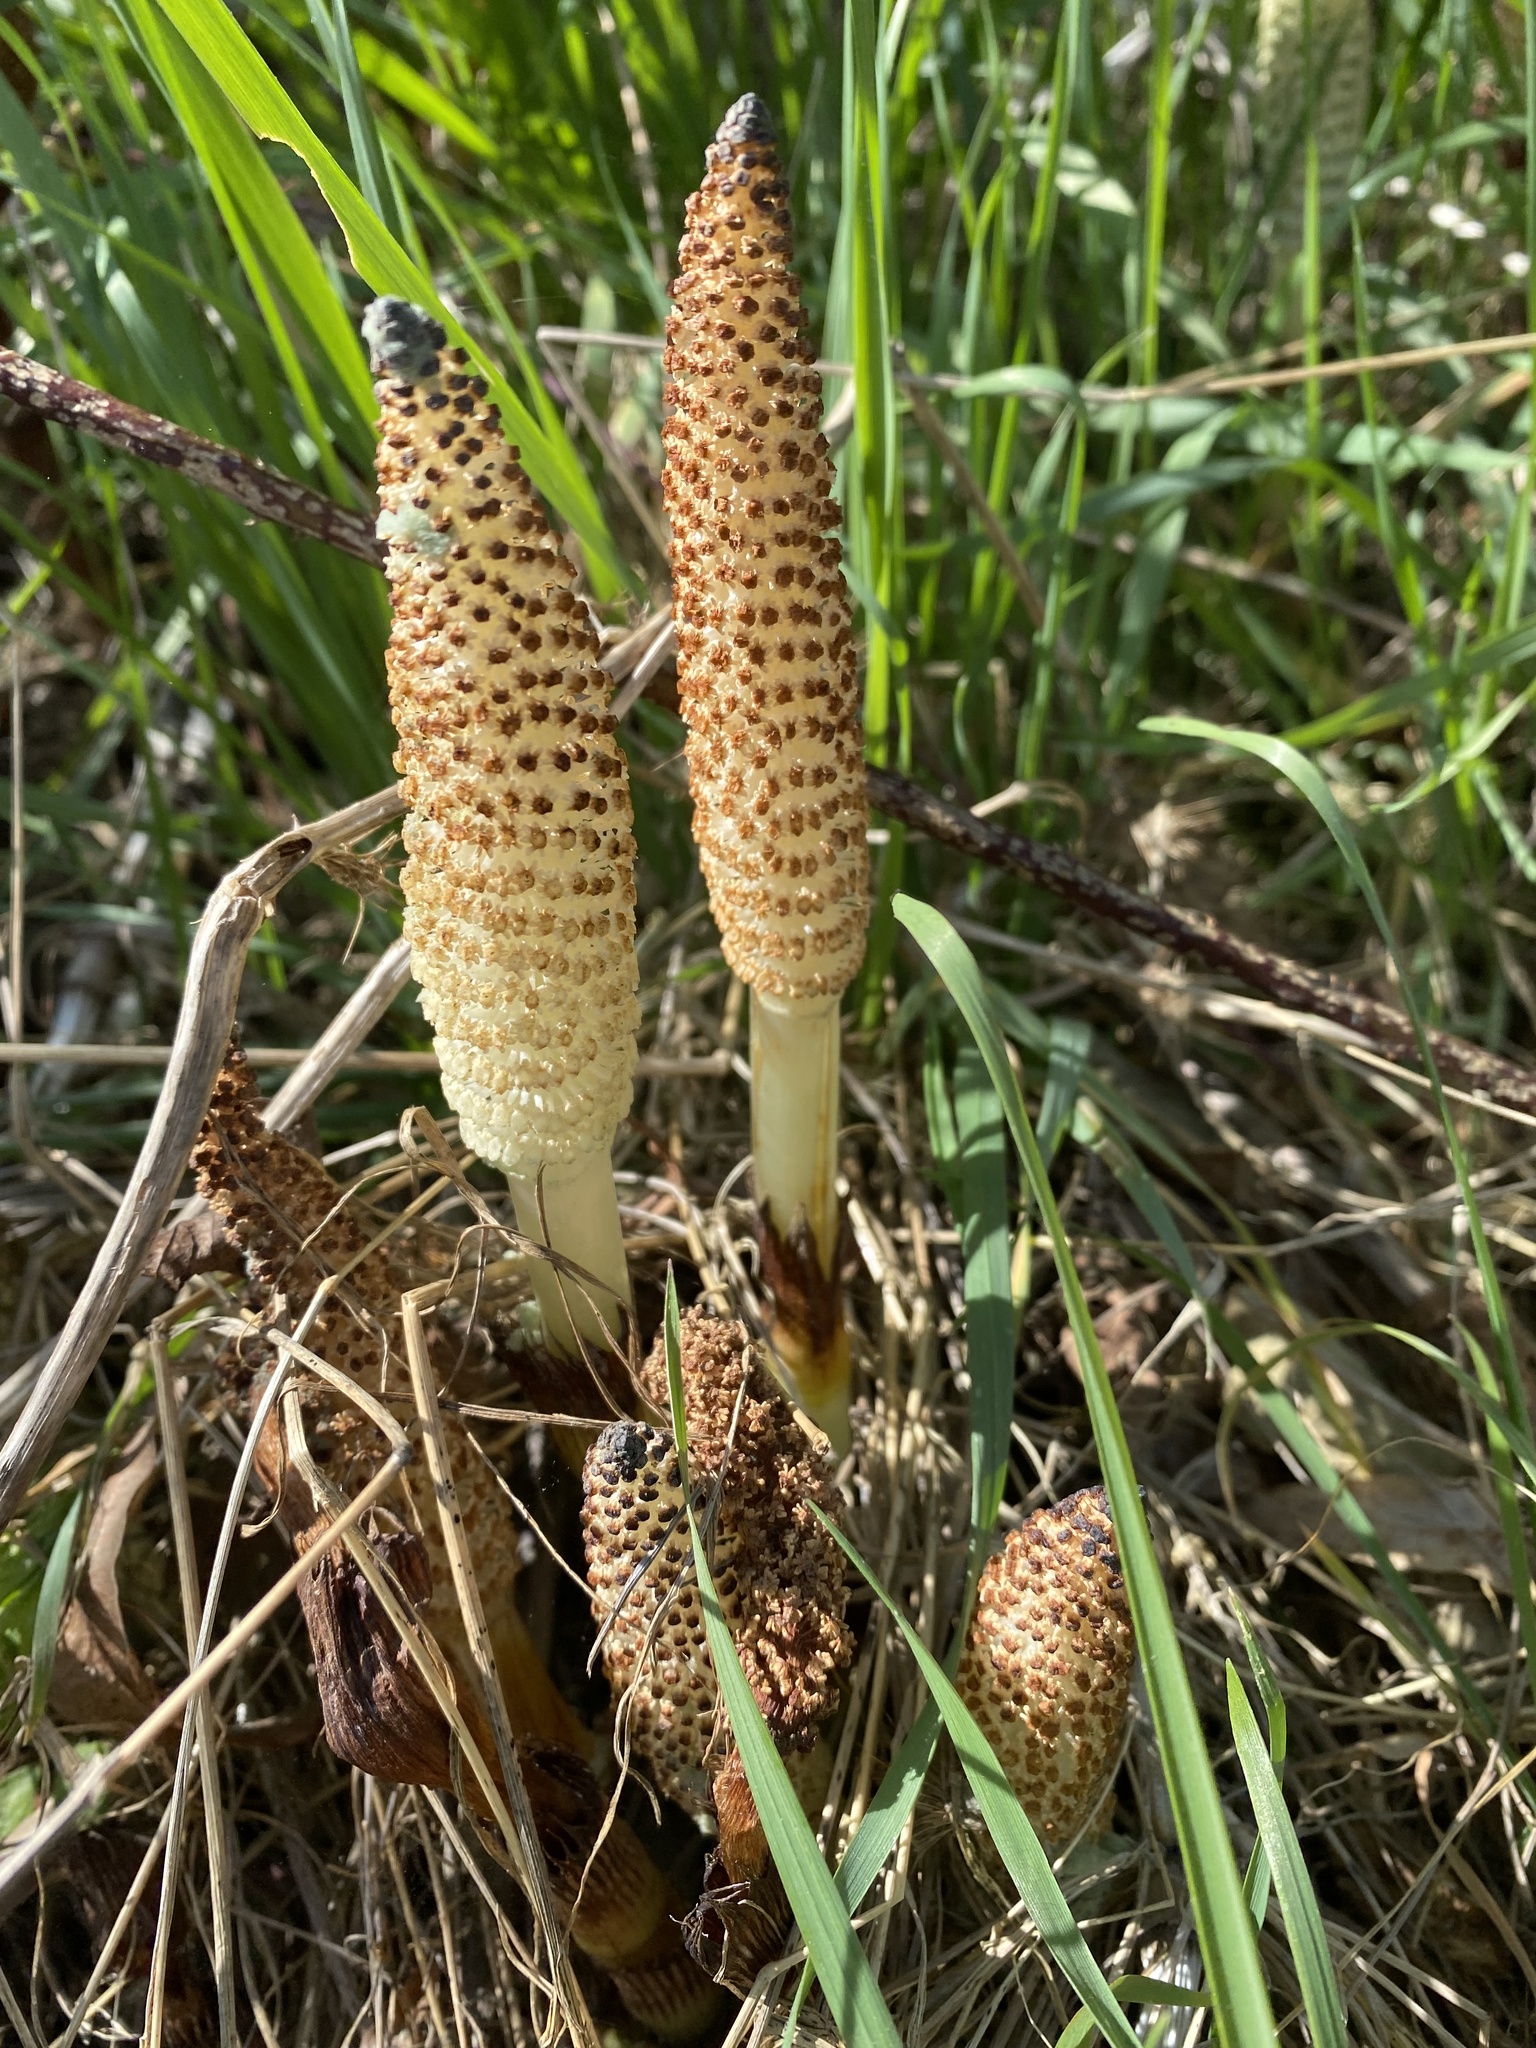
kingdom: Plantae
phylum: Tracheophyta
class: Polypodiopsida
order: Equisetales
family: Equisetaceae
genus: Equisetum
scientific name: Equisetum telmateia
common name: Great horsetail
